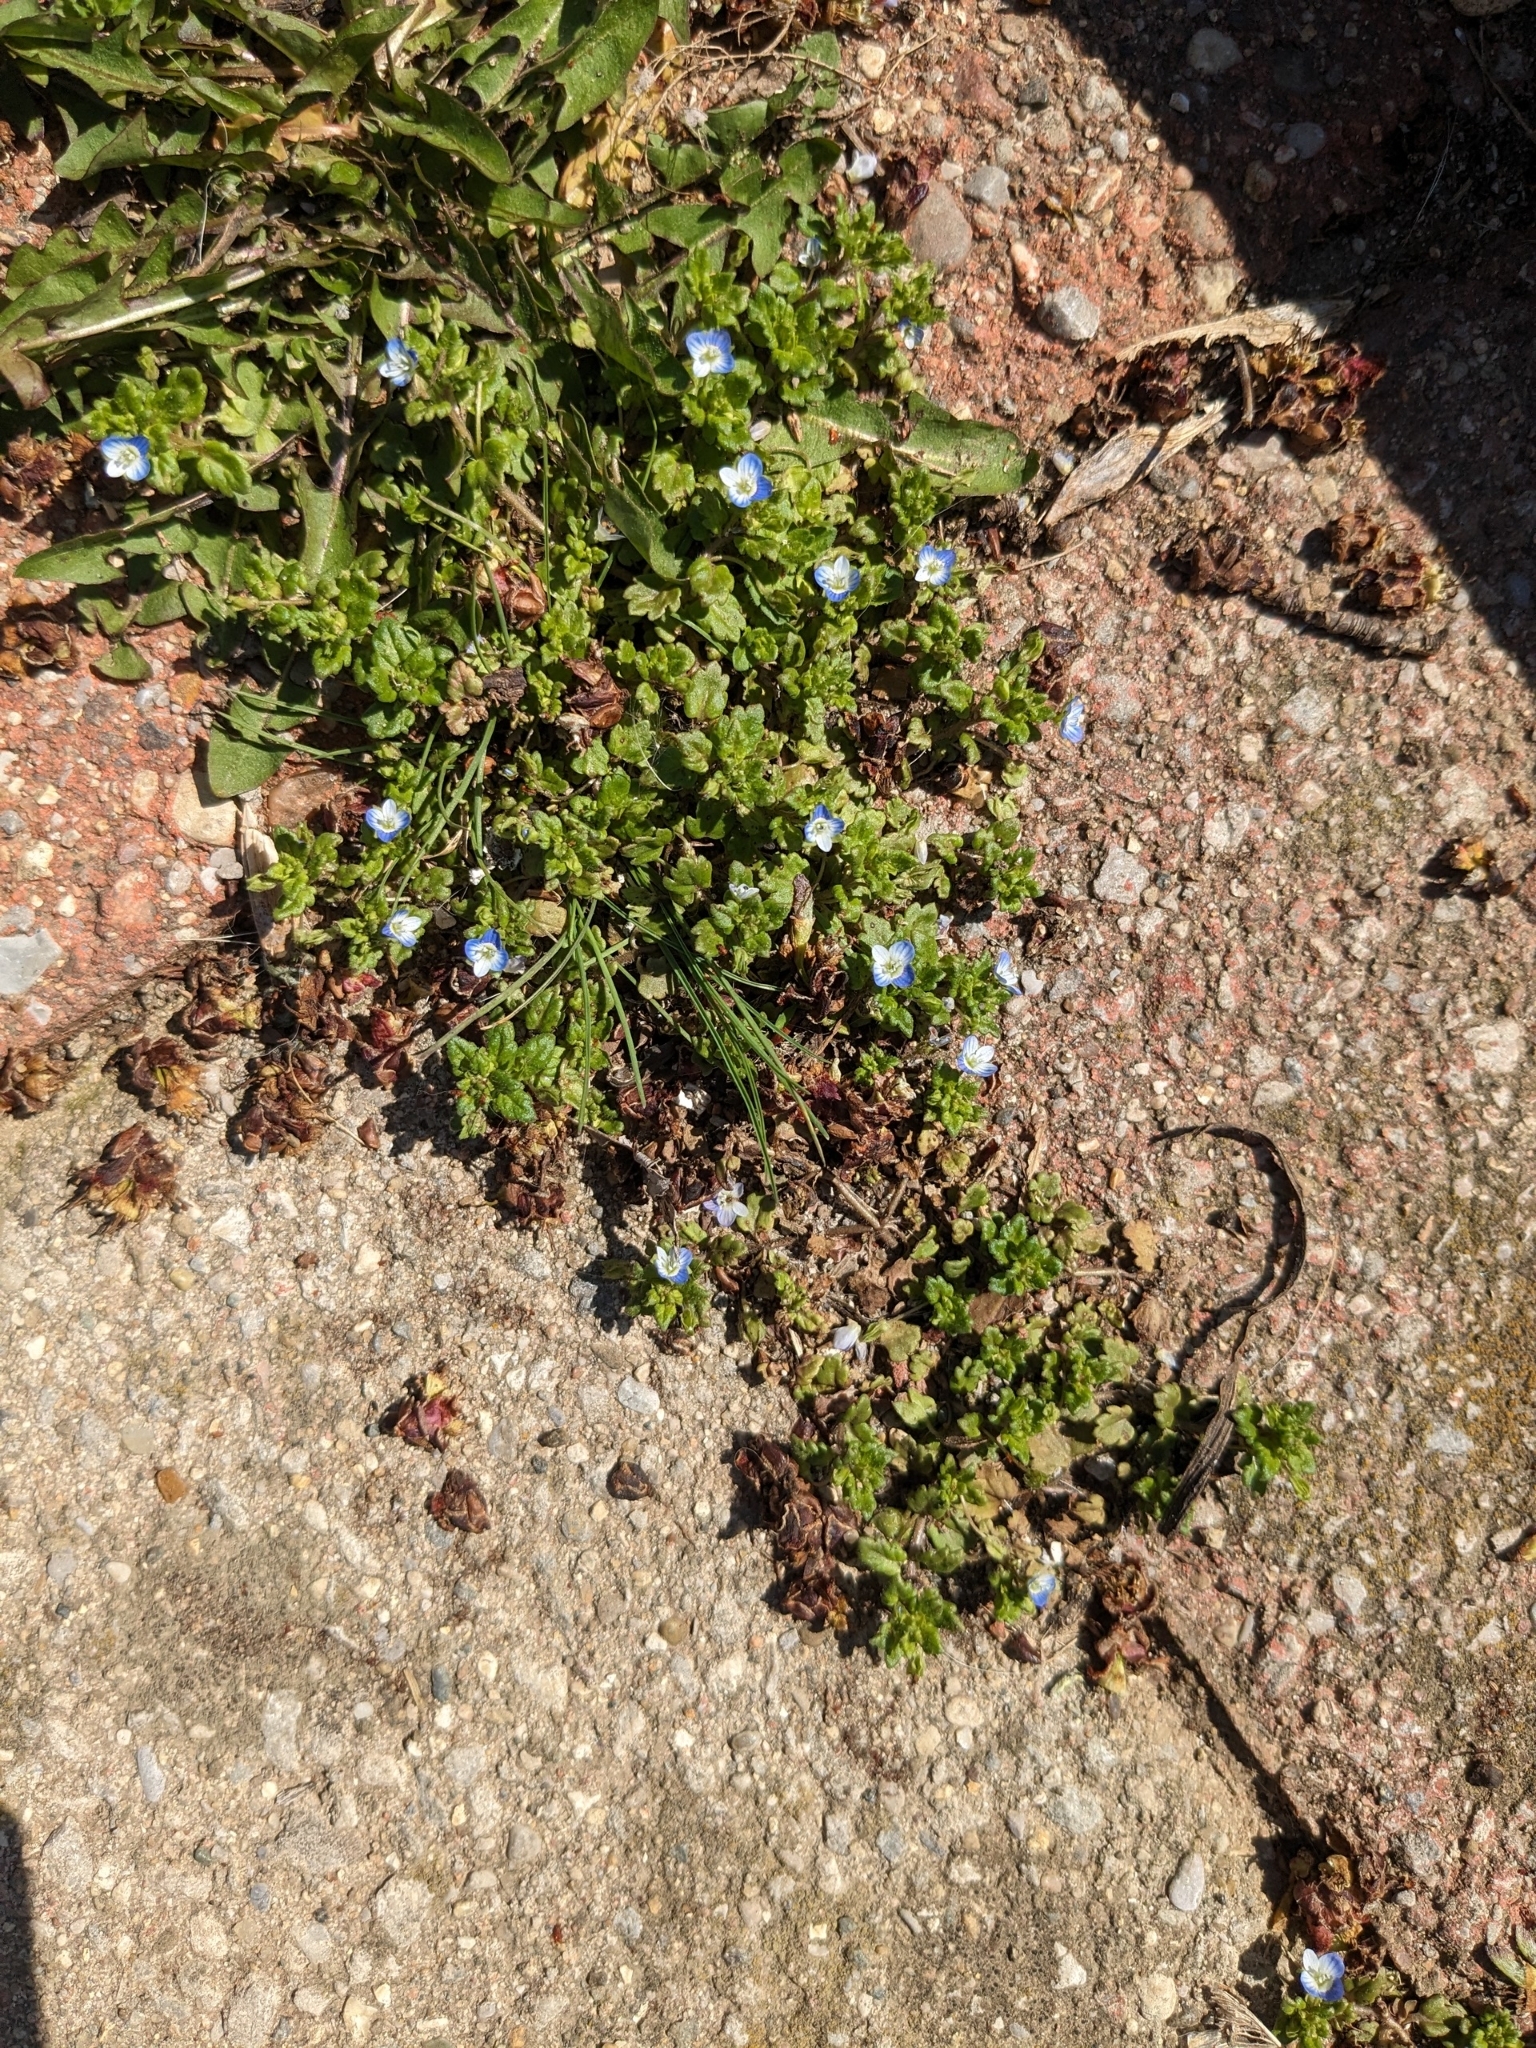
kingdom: Plantae
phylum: Tracheophyta
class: Magnoliopsida
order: Lamiales
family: Plantaginaceae
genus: Veronica
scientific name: Veronica polita
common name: Grey field-speedwell
